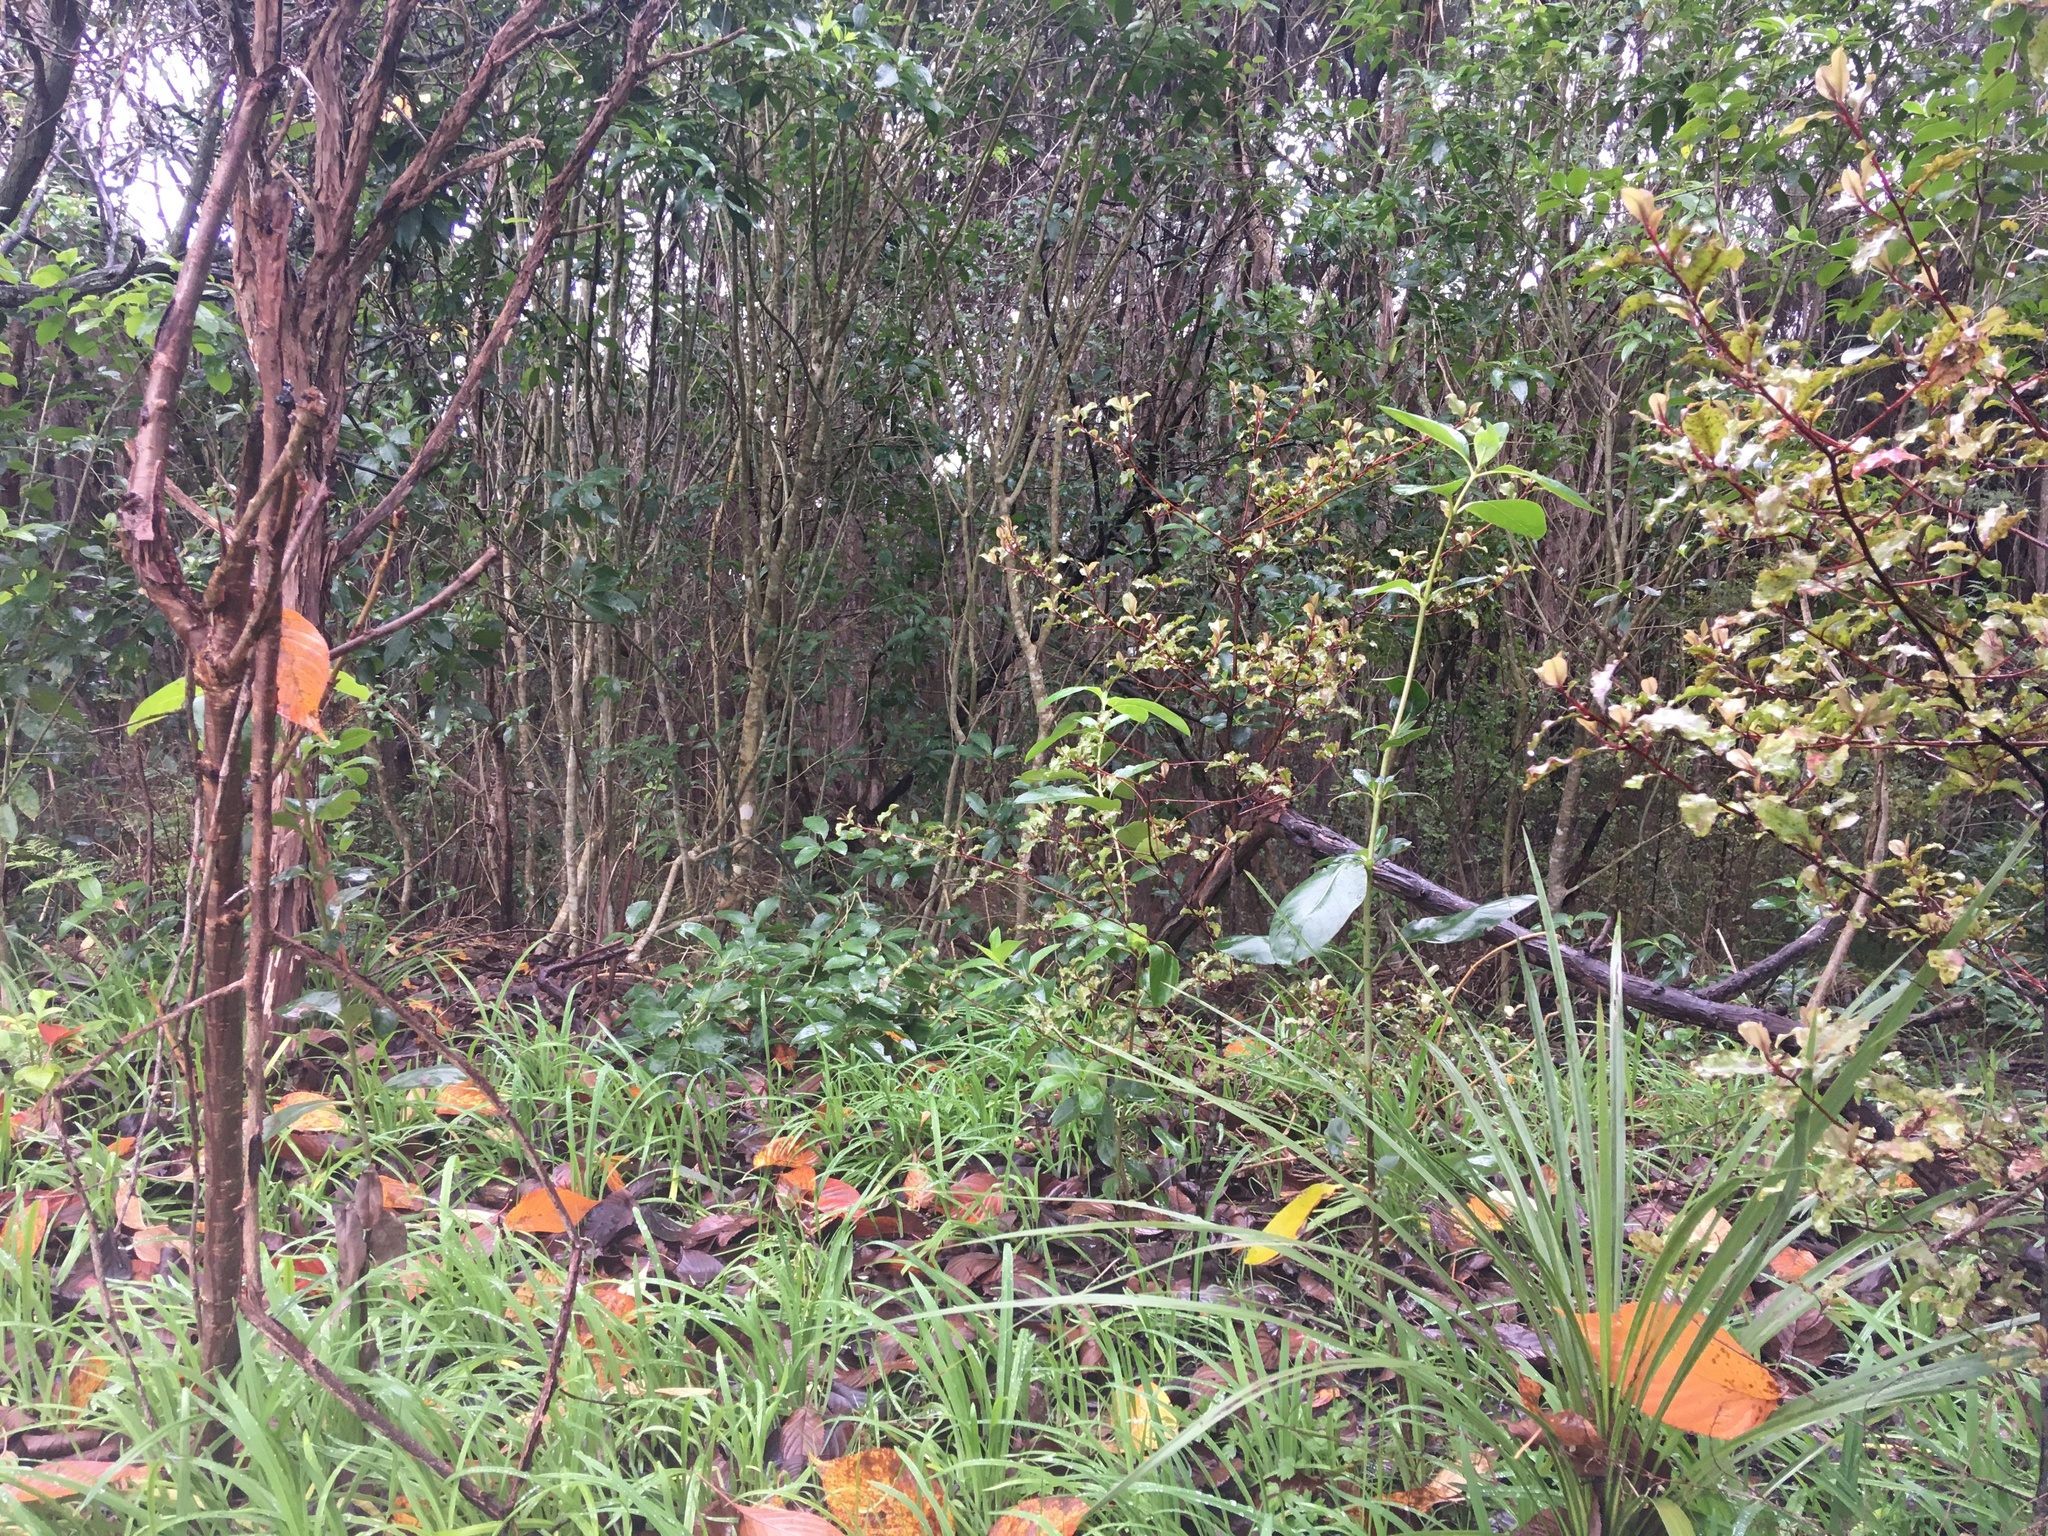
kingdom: Plantae
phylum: Tracheophyta
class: Liliopsida
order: Asparagales
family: Amaryllidaceae
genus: Allium
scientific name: Allium triquetrum
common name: Three-cornered garlic
